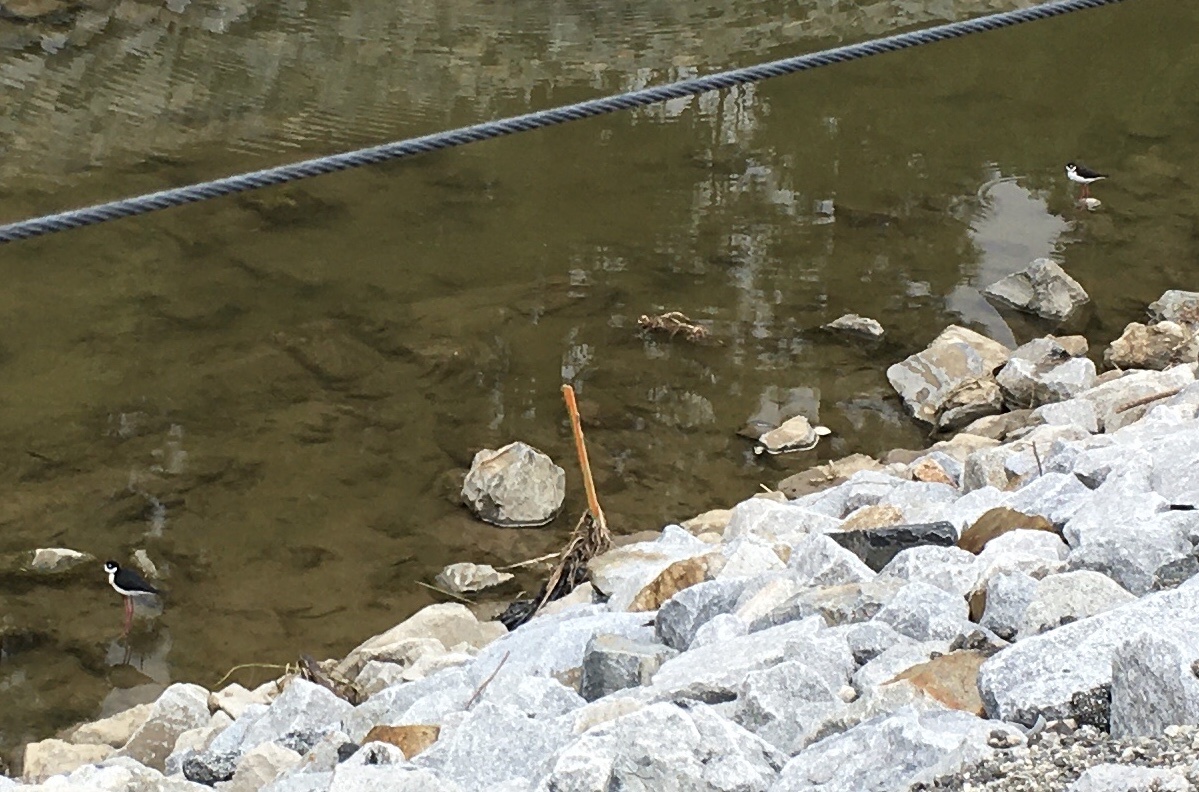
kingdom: Animalia
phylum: Chordata
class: Aves
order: Charadriiformes
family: Recurvirostridae
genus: Himantopus
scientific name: Himantopus mexicanus
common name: Black-necked stilt
